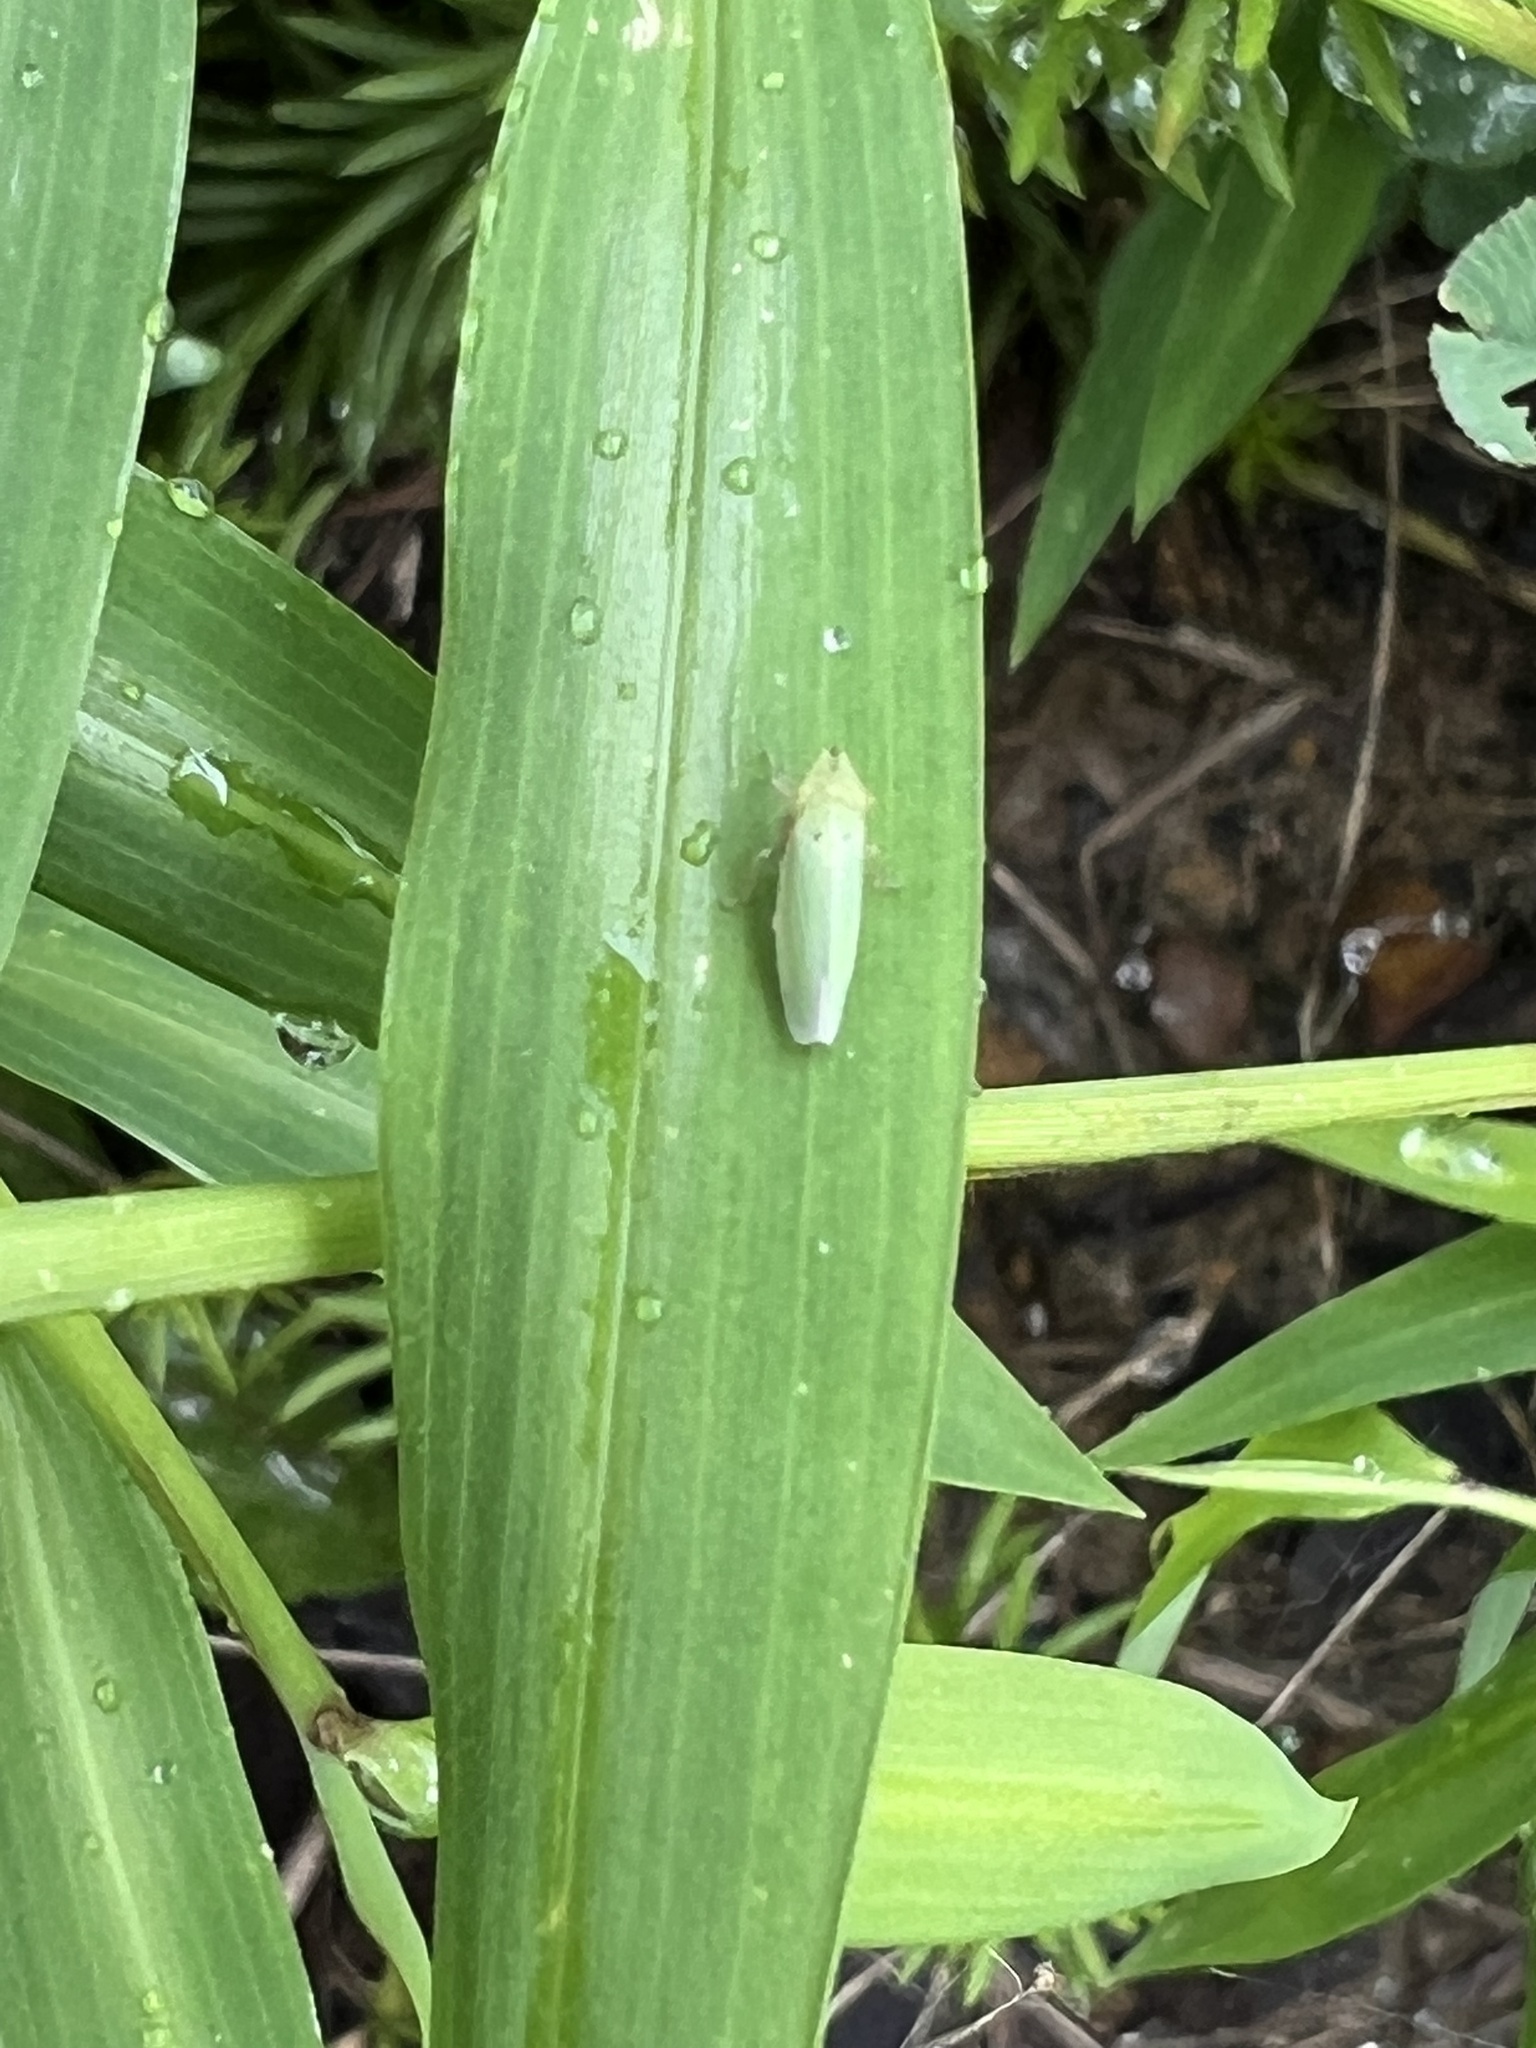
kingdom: Animalia
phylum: Arthropoda
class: Insecta
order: Hemiptera
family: Cicadellidae
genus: Draeculacephala
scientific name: Draeculacephala balli
